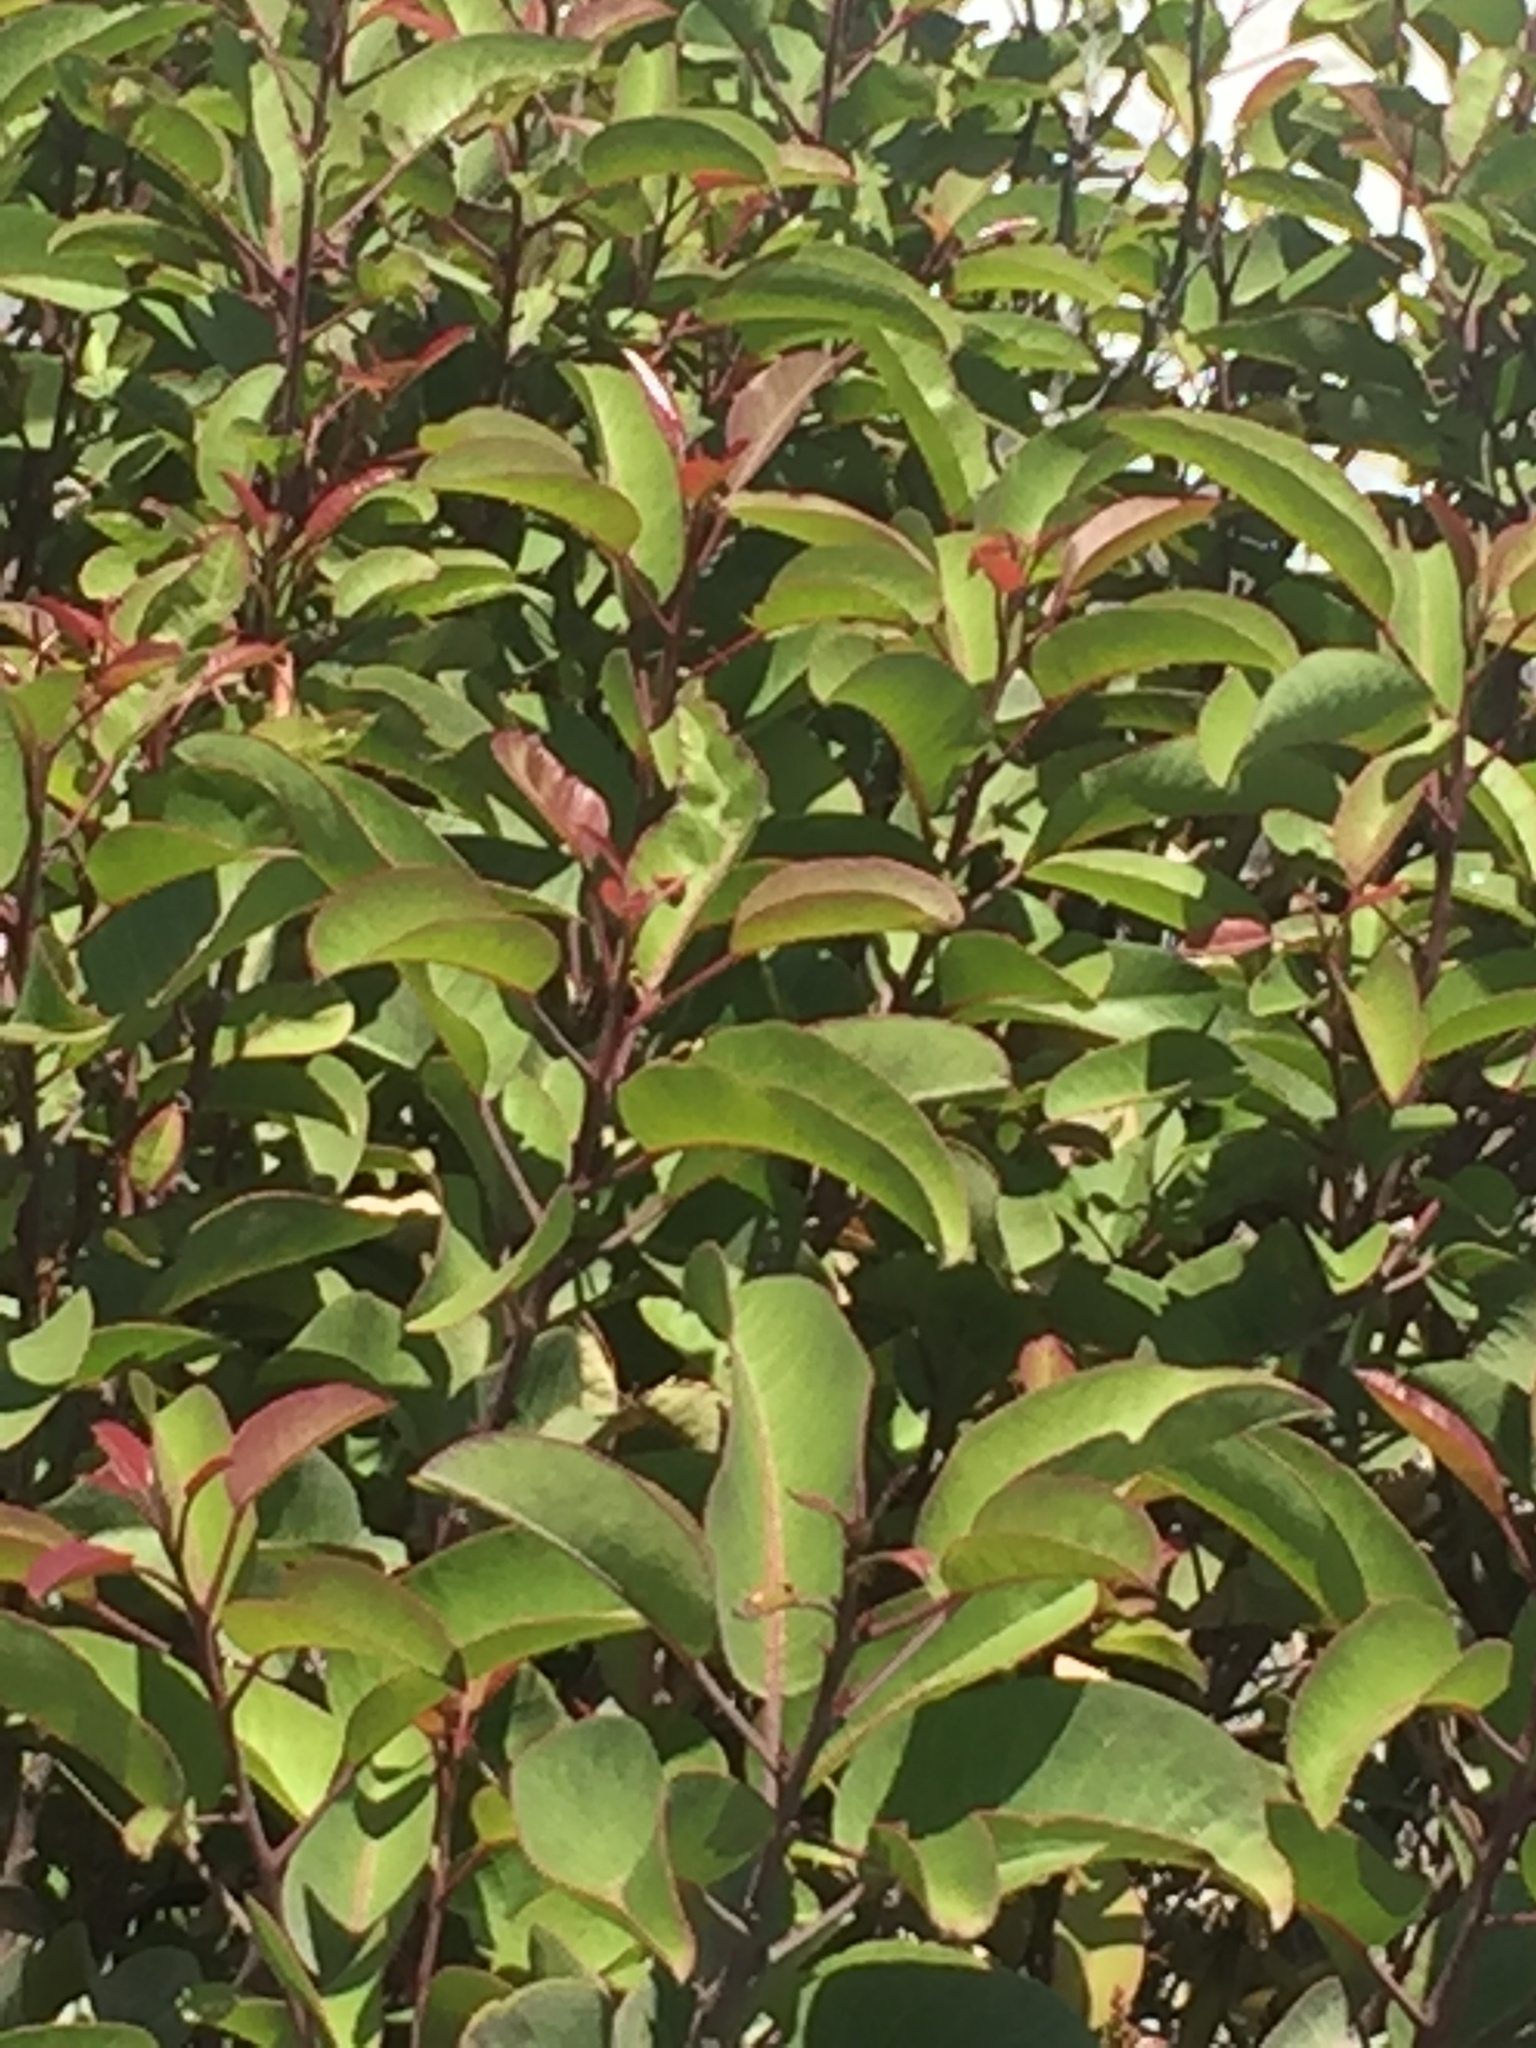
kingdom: Plantae
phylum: Tracheophyta
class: Magnoliopsida
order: Sapindales
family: Anacardiaceae
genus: Malosma
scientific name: Malosma laurina
